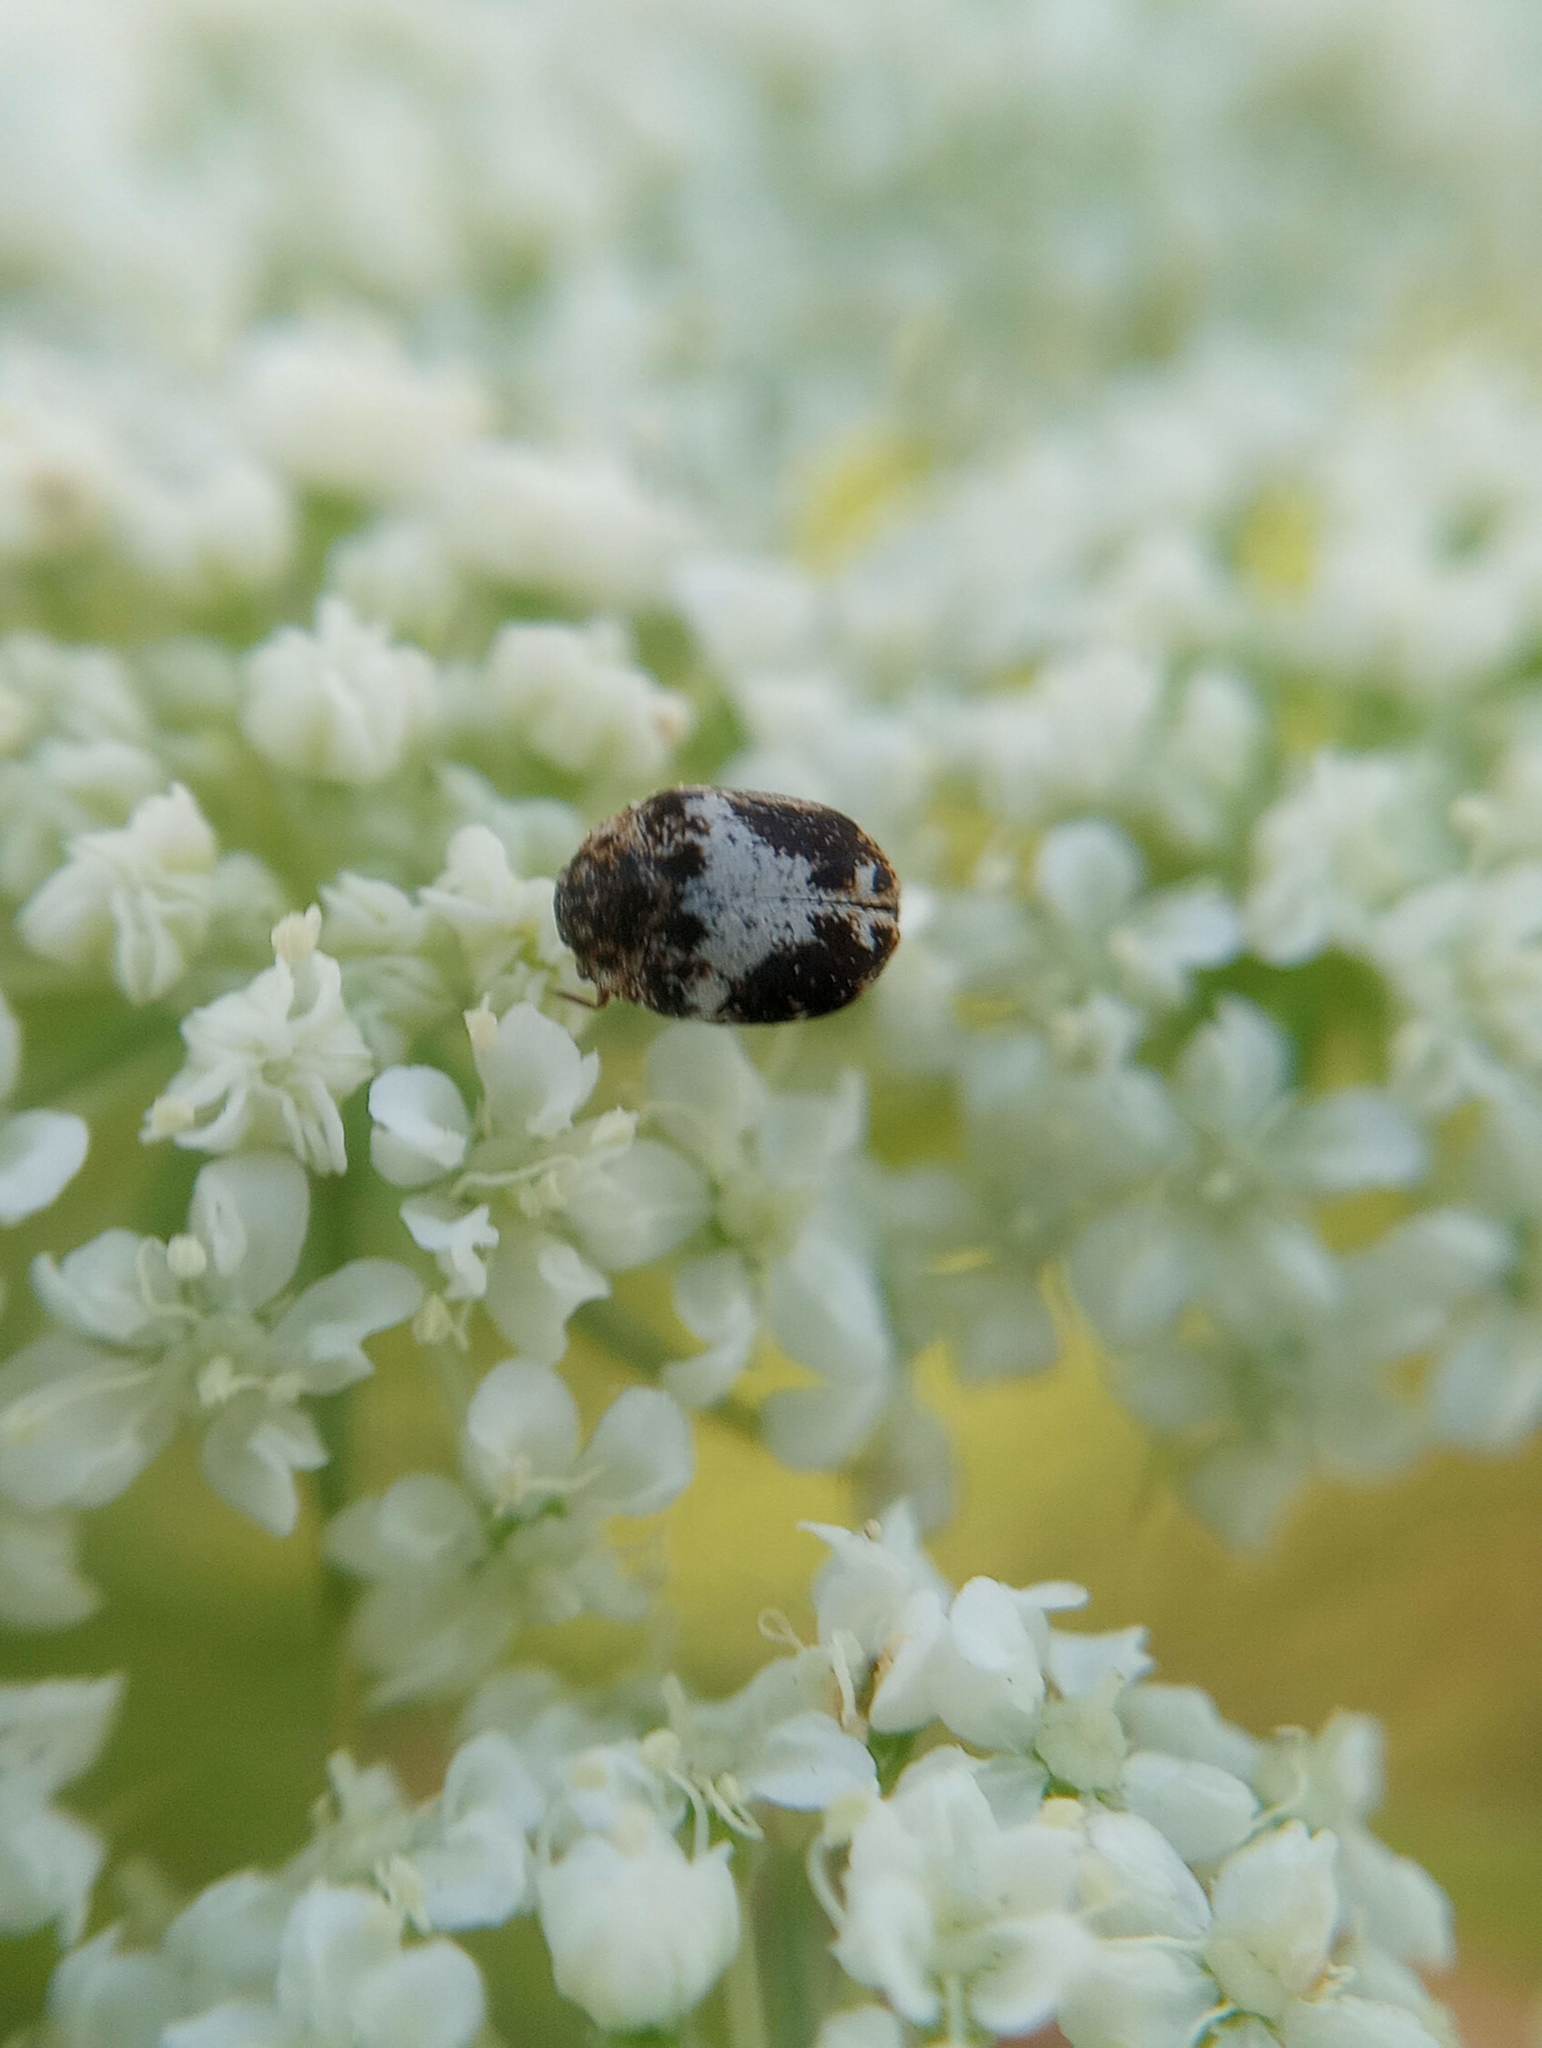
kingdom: Animalia
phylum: Arthropoda
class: Insecta
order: Coleoptera
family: Dermestidae
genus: Anthrenus
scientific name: Anthrenus sophonisba
